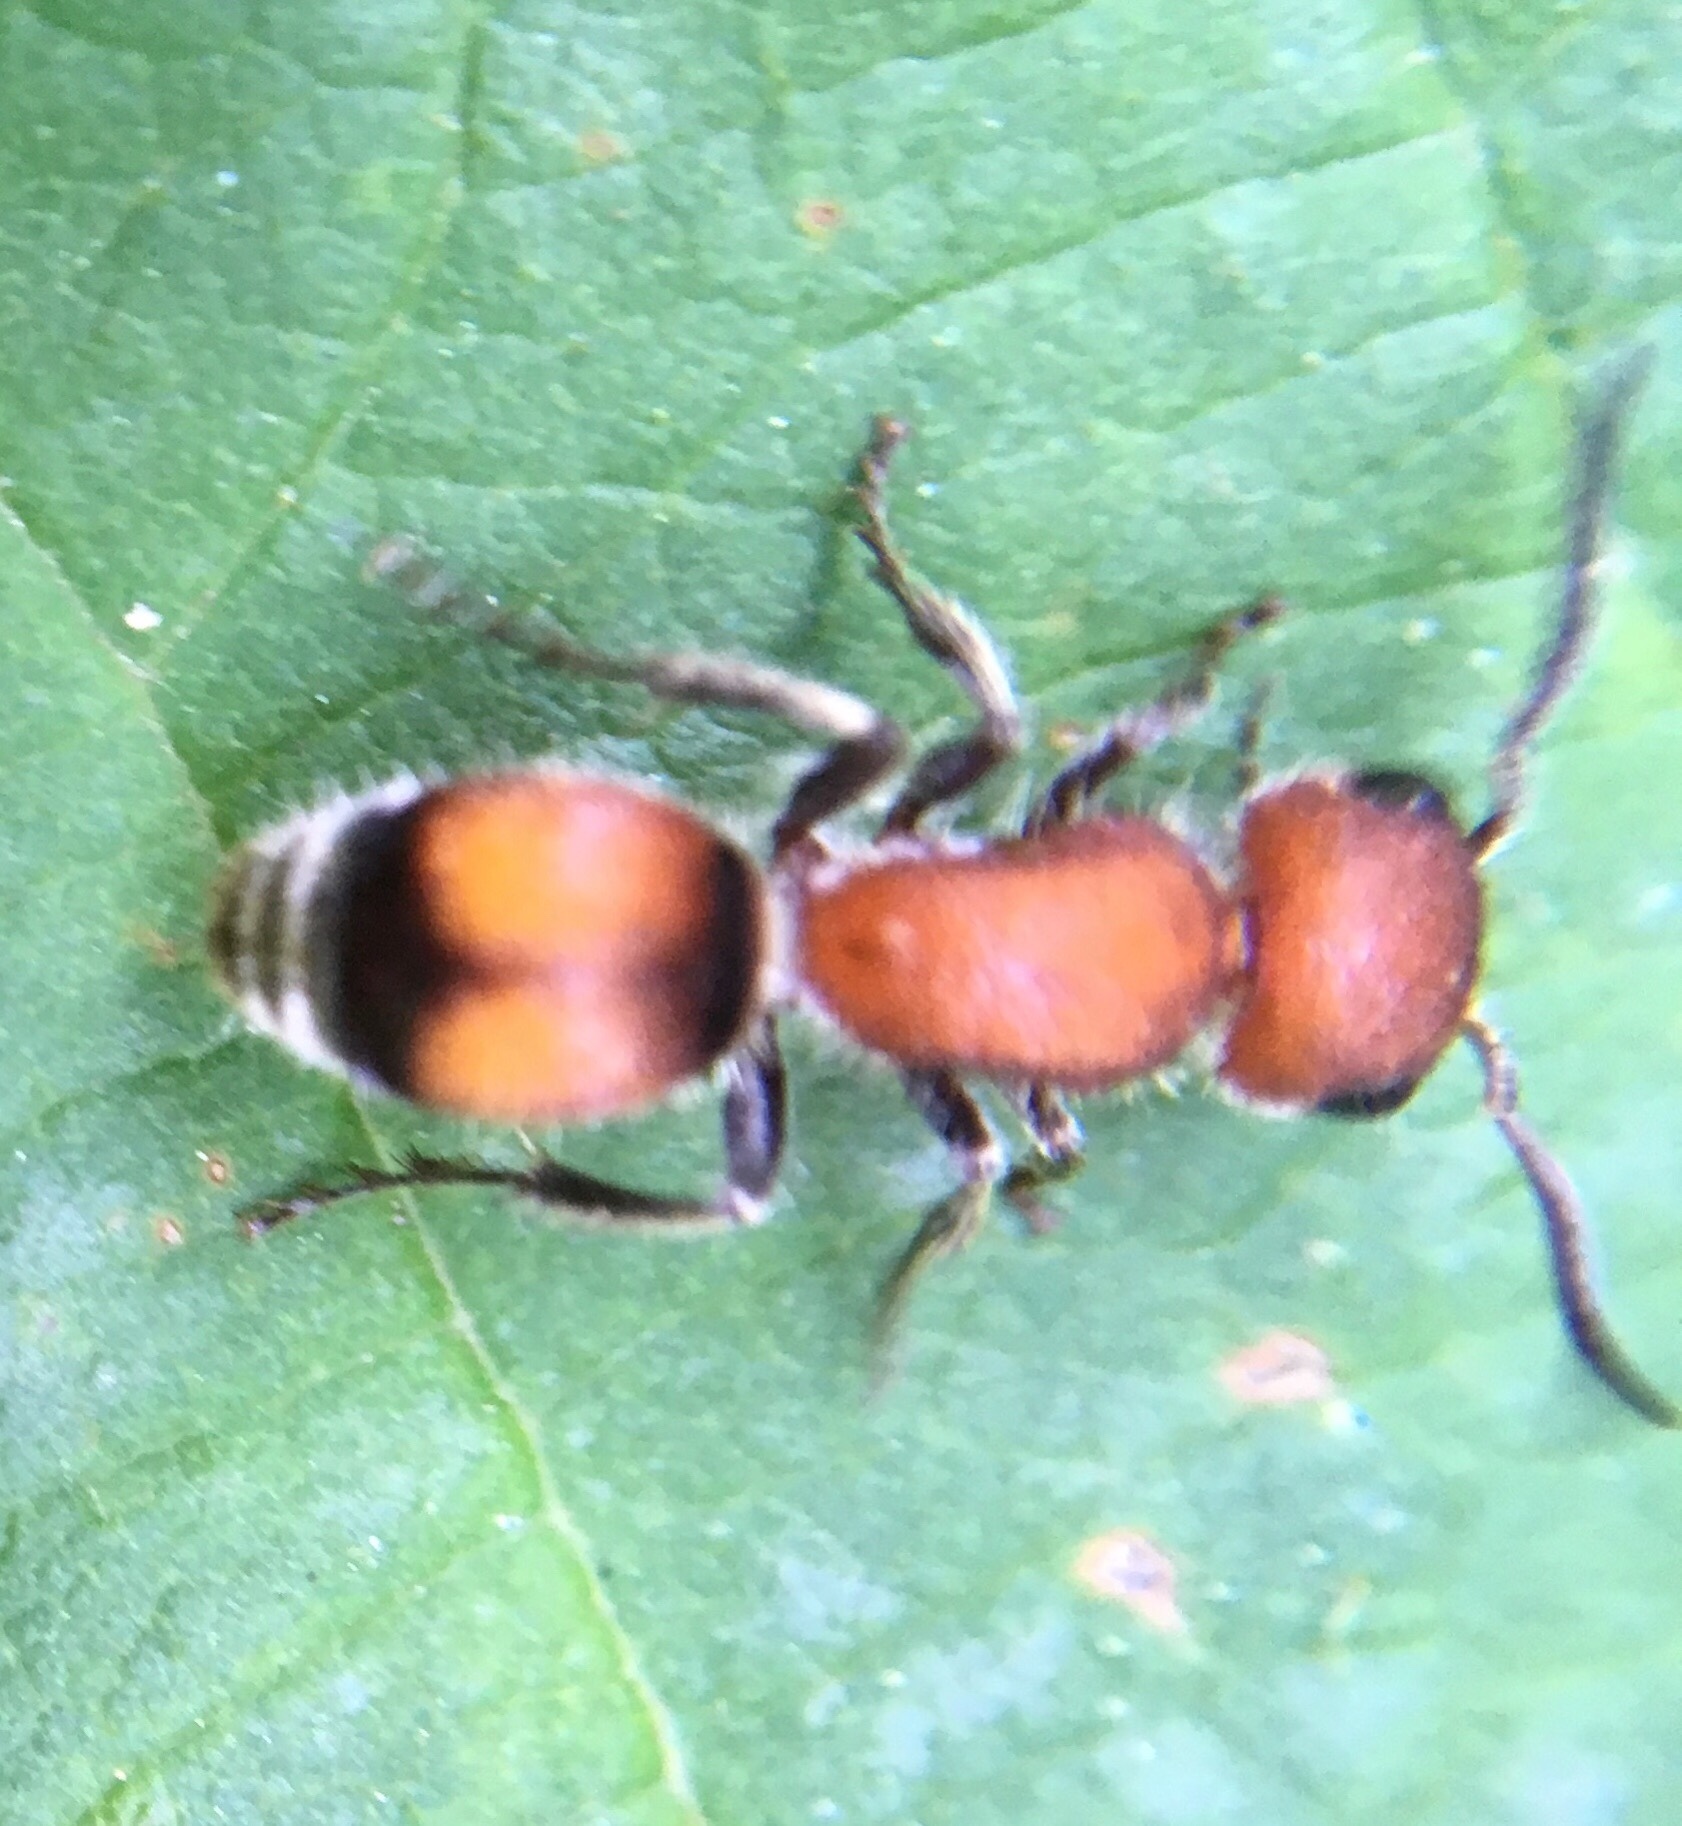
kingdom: Animalia
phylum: Arthropoda
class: Insecta
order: Hymenoptera
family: Mutillidae
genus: Pseudomethoca
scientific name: Pseudomethoca
